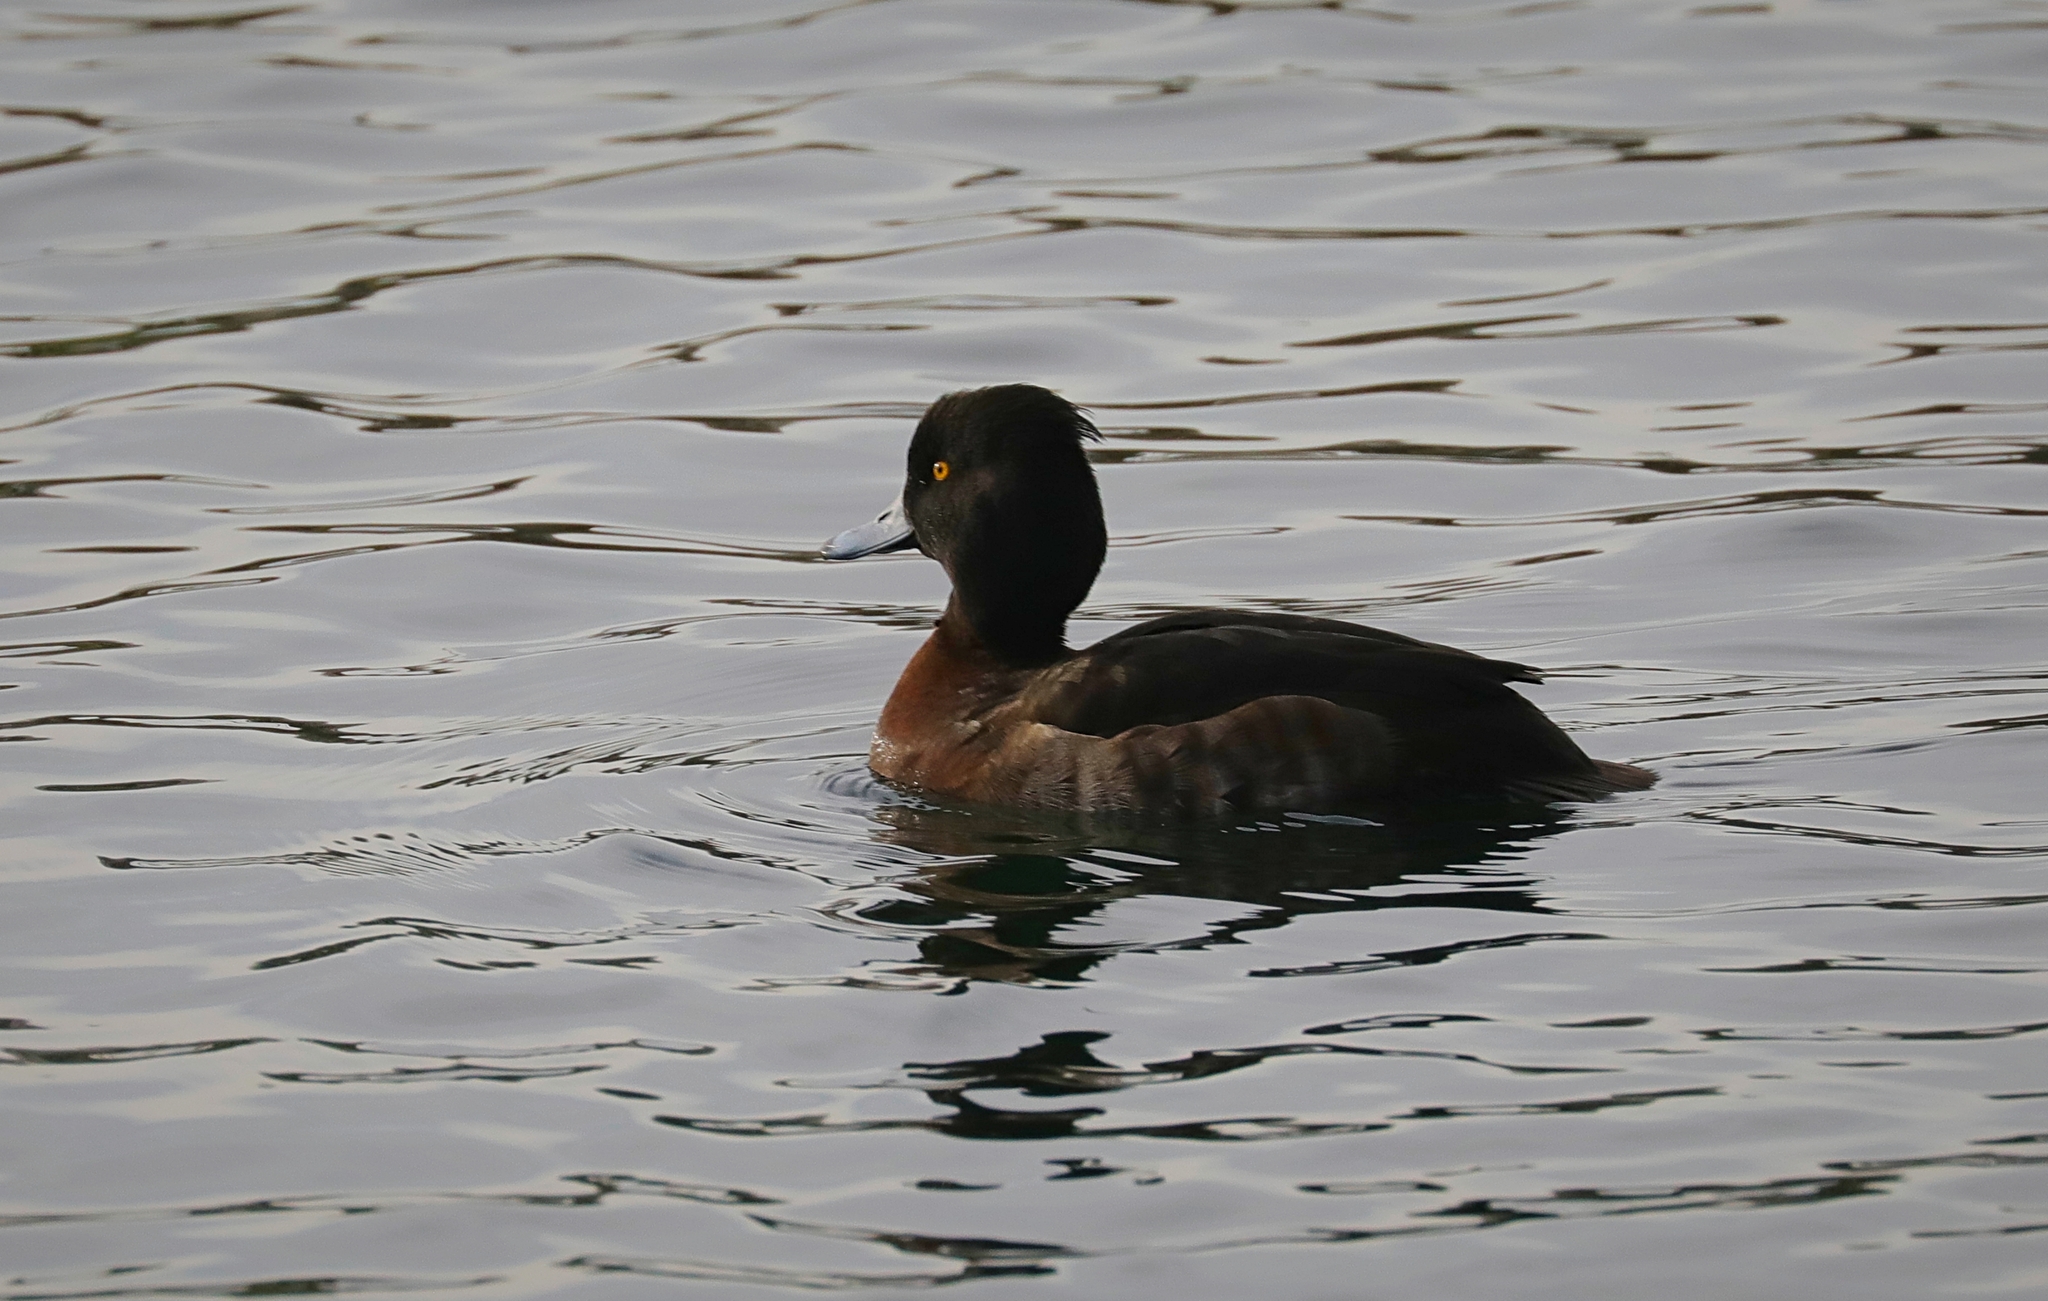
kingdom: Animalia
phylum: Chordata
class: Aves
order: Anseriformes
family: Anatidae
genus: Aythya
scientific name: Aythya fuligula
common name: Tufted duck
